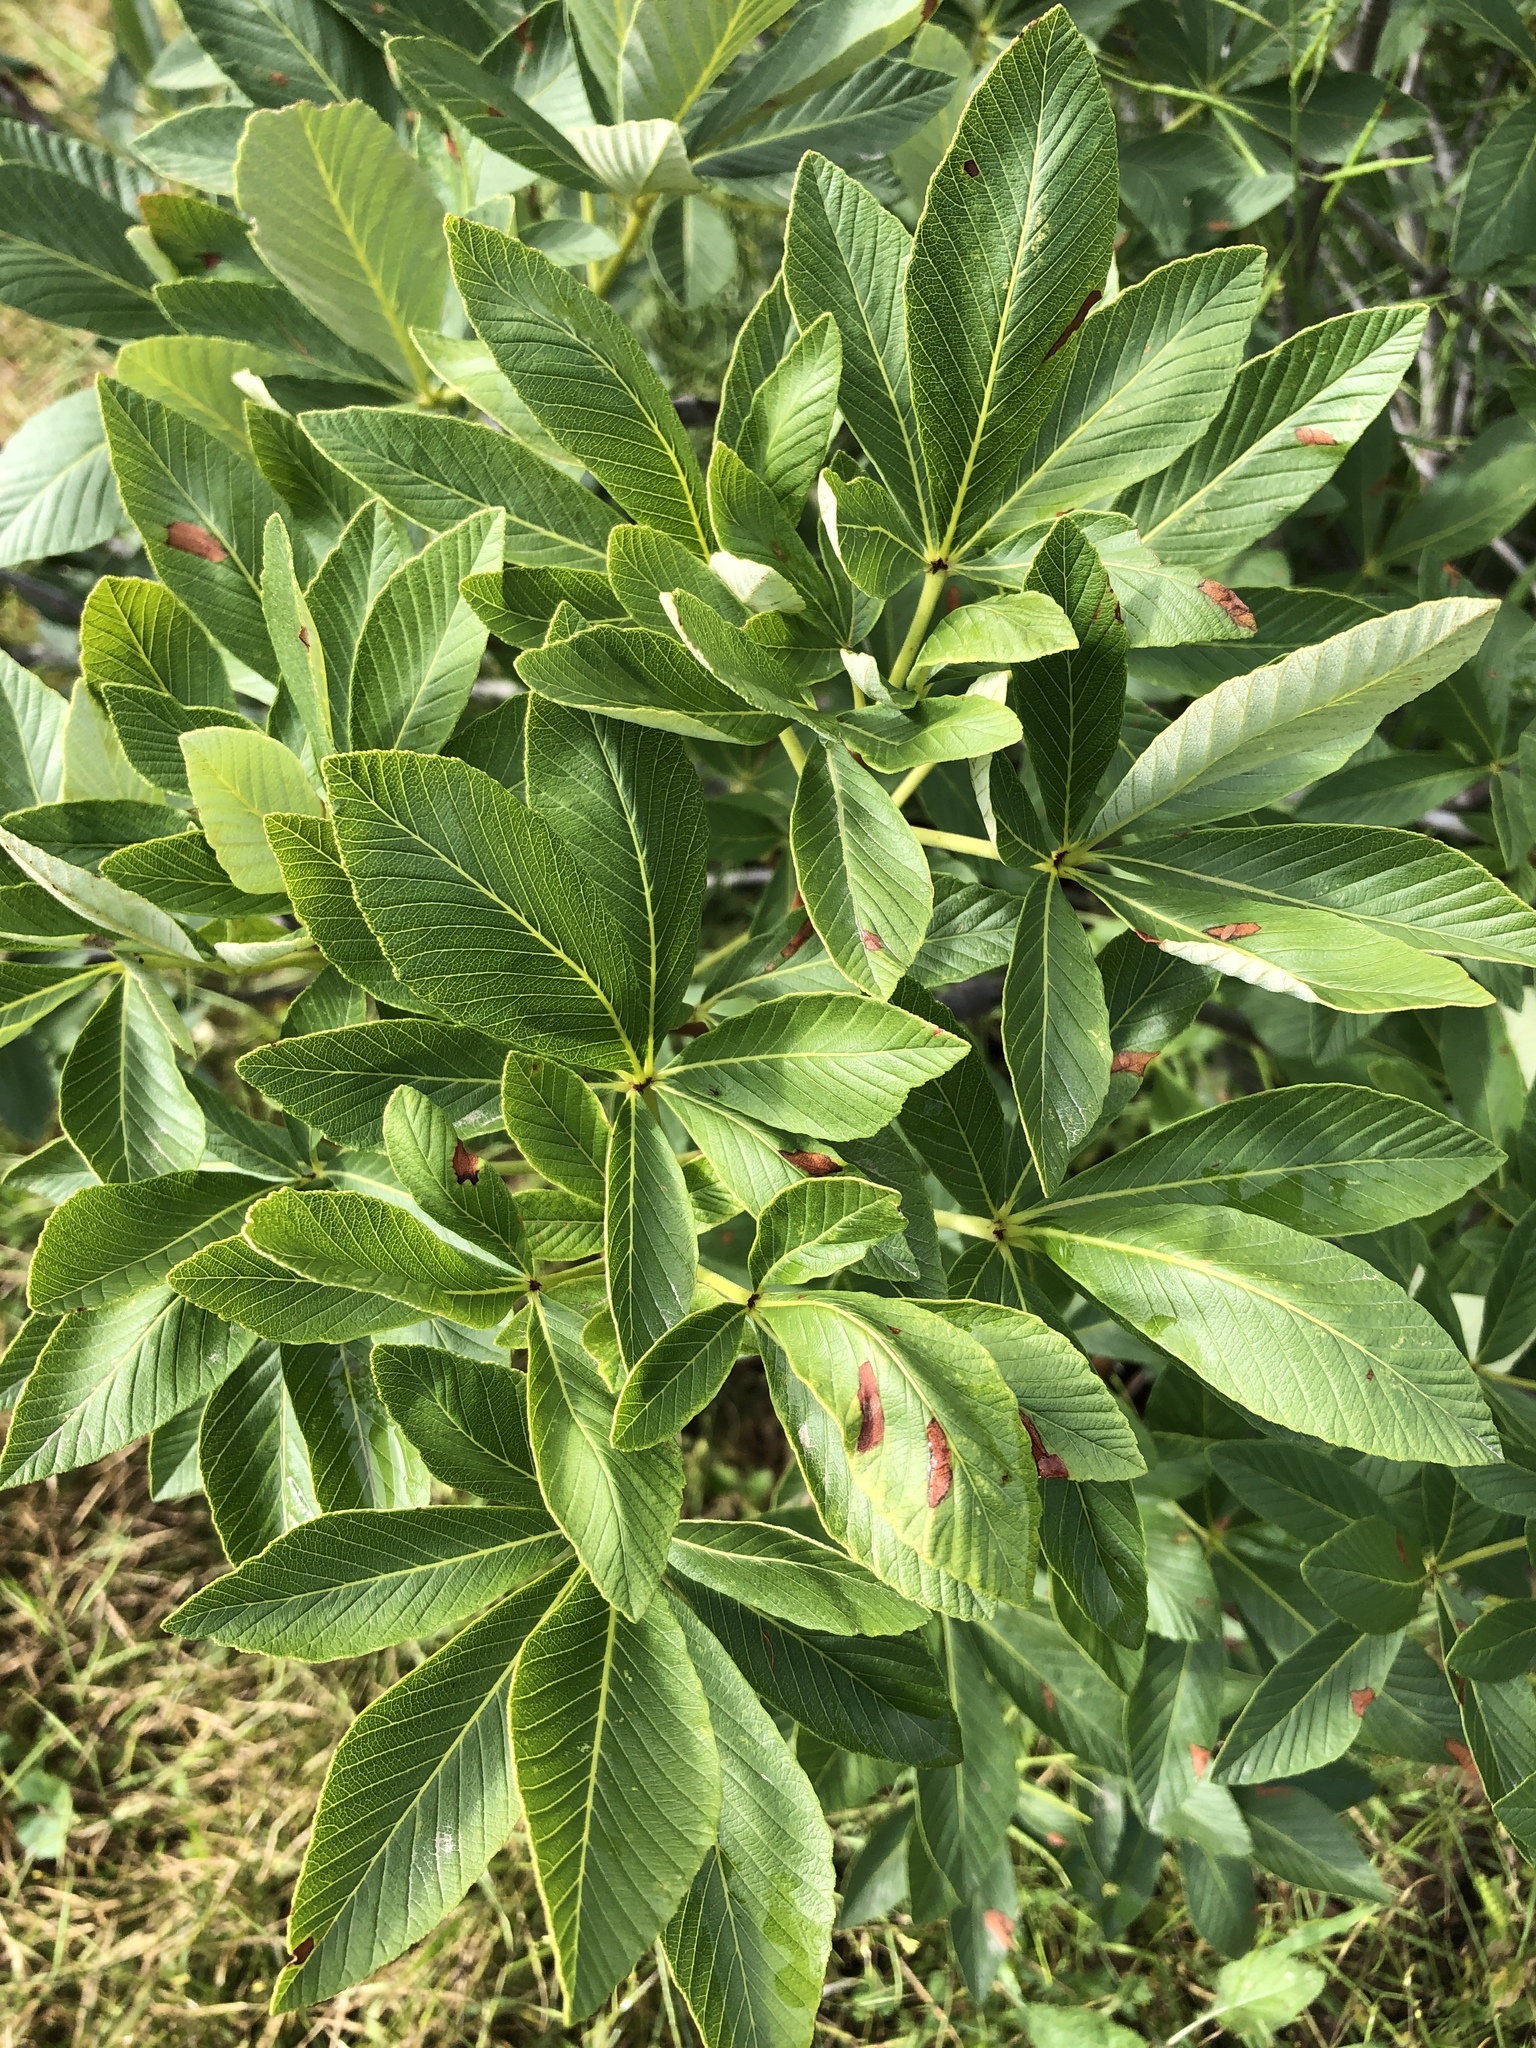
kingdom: Plantae
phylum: Tracheophyta
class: Magnoliopsida
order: Sapindales
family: Sapindaceae
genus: Aesculus
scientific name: Aesculus parryi
